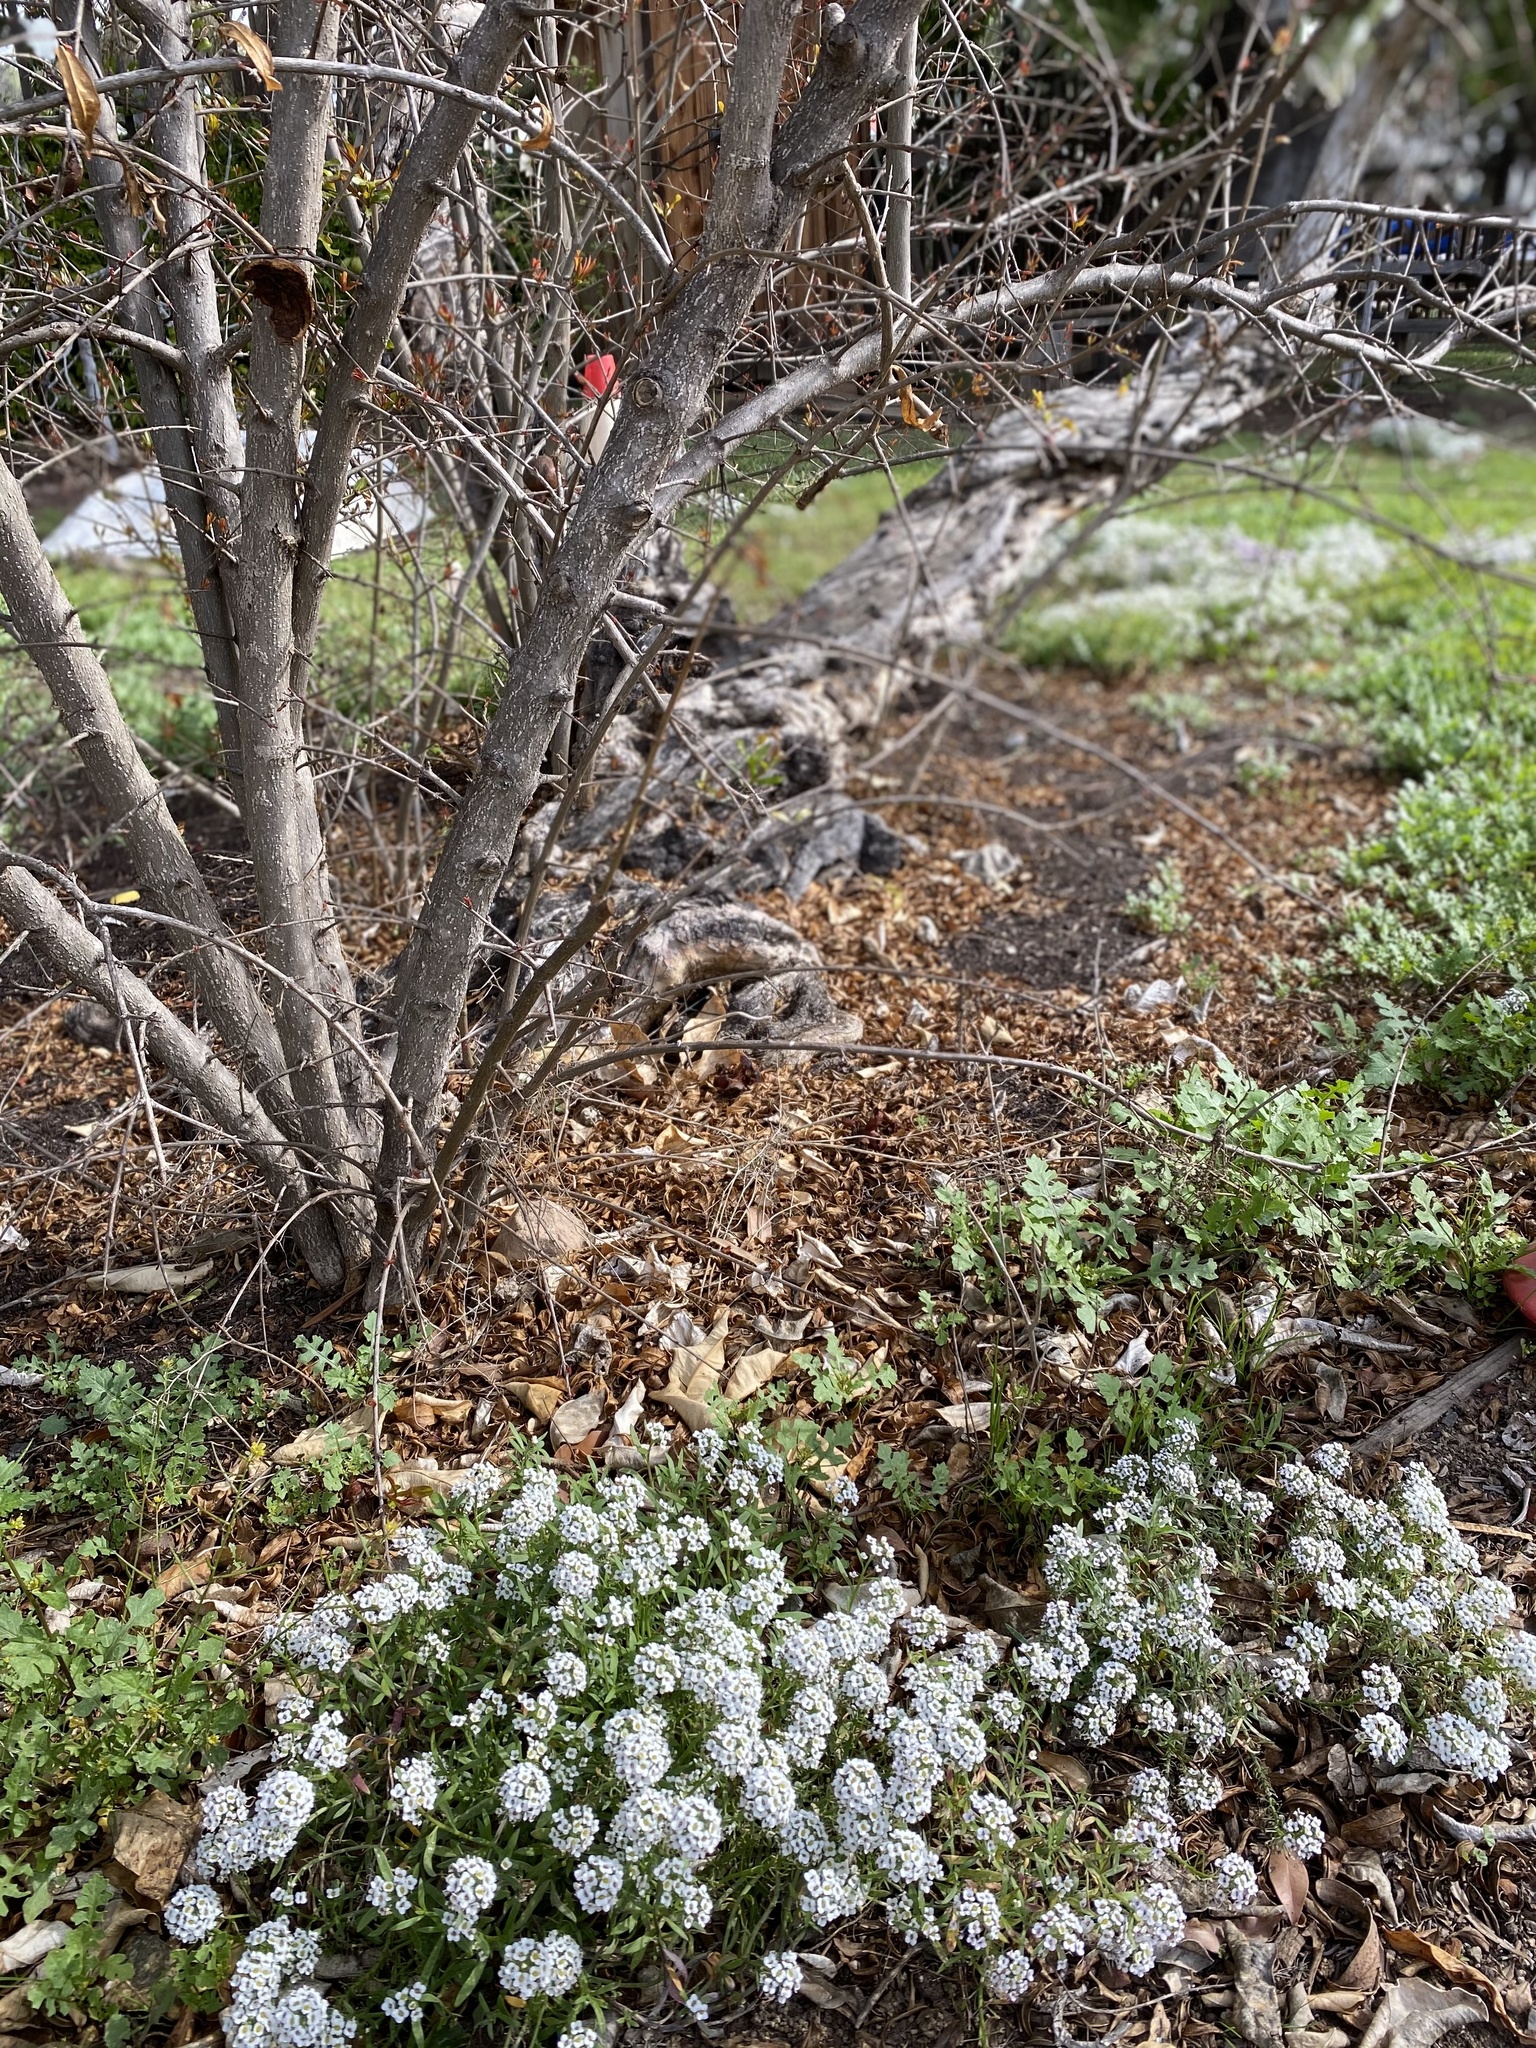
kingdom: Animalia
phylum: Arthropoda
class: Insecta
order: Hymenoptera
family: Apidae
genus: Apis
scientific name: Apis mellifera
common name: Honey bee
